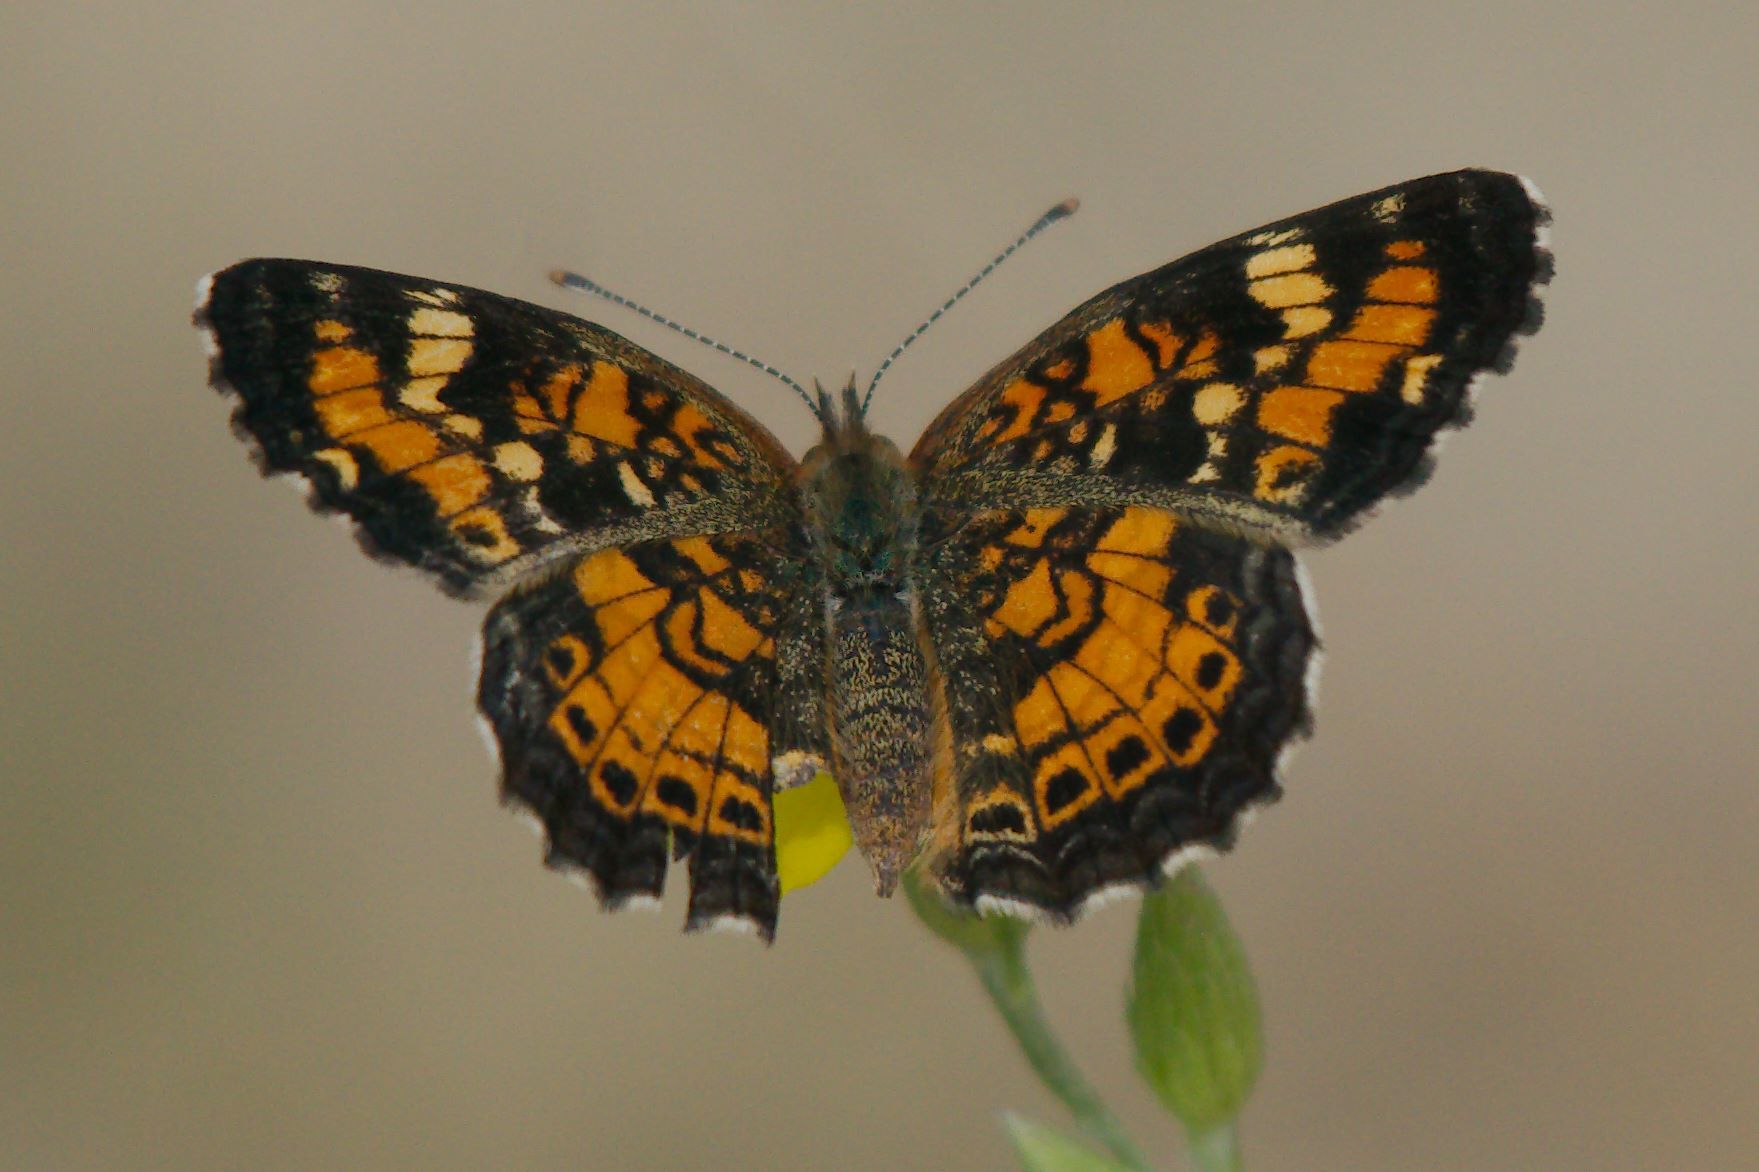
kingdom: Animalia
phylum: Arthropoda
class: Insecta
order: Lepidoptera
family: Nymphalidae
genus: Phyciodes
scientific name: Phyciodes phaon
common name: Phaon crescent
